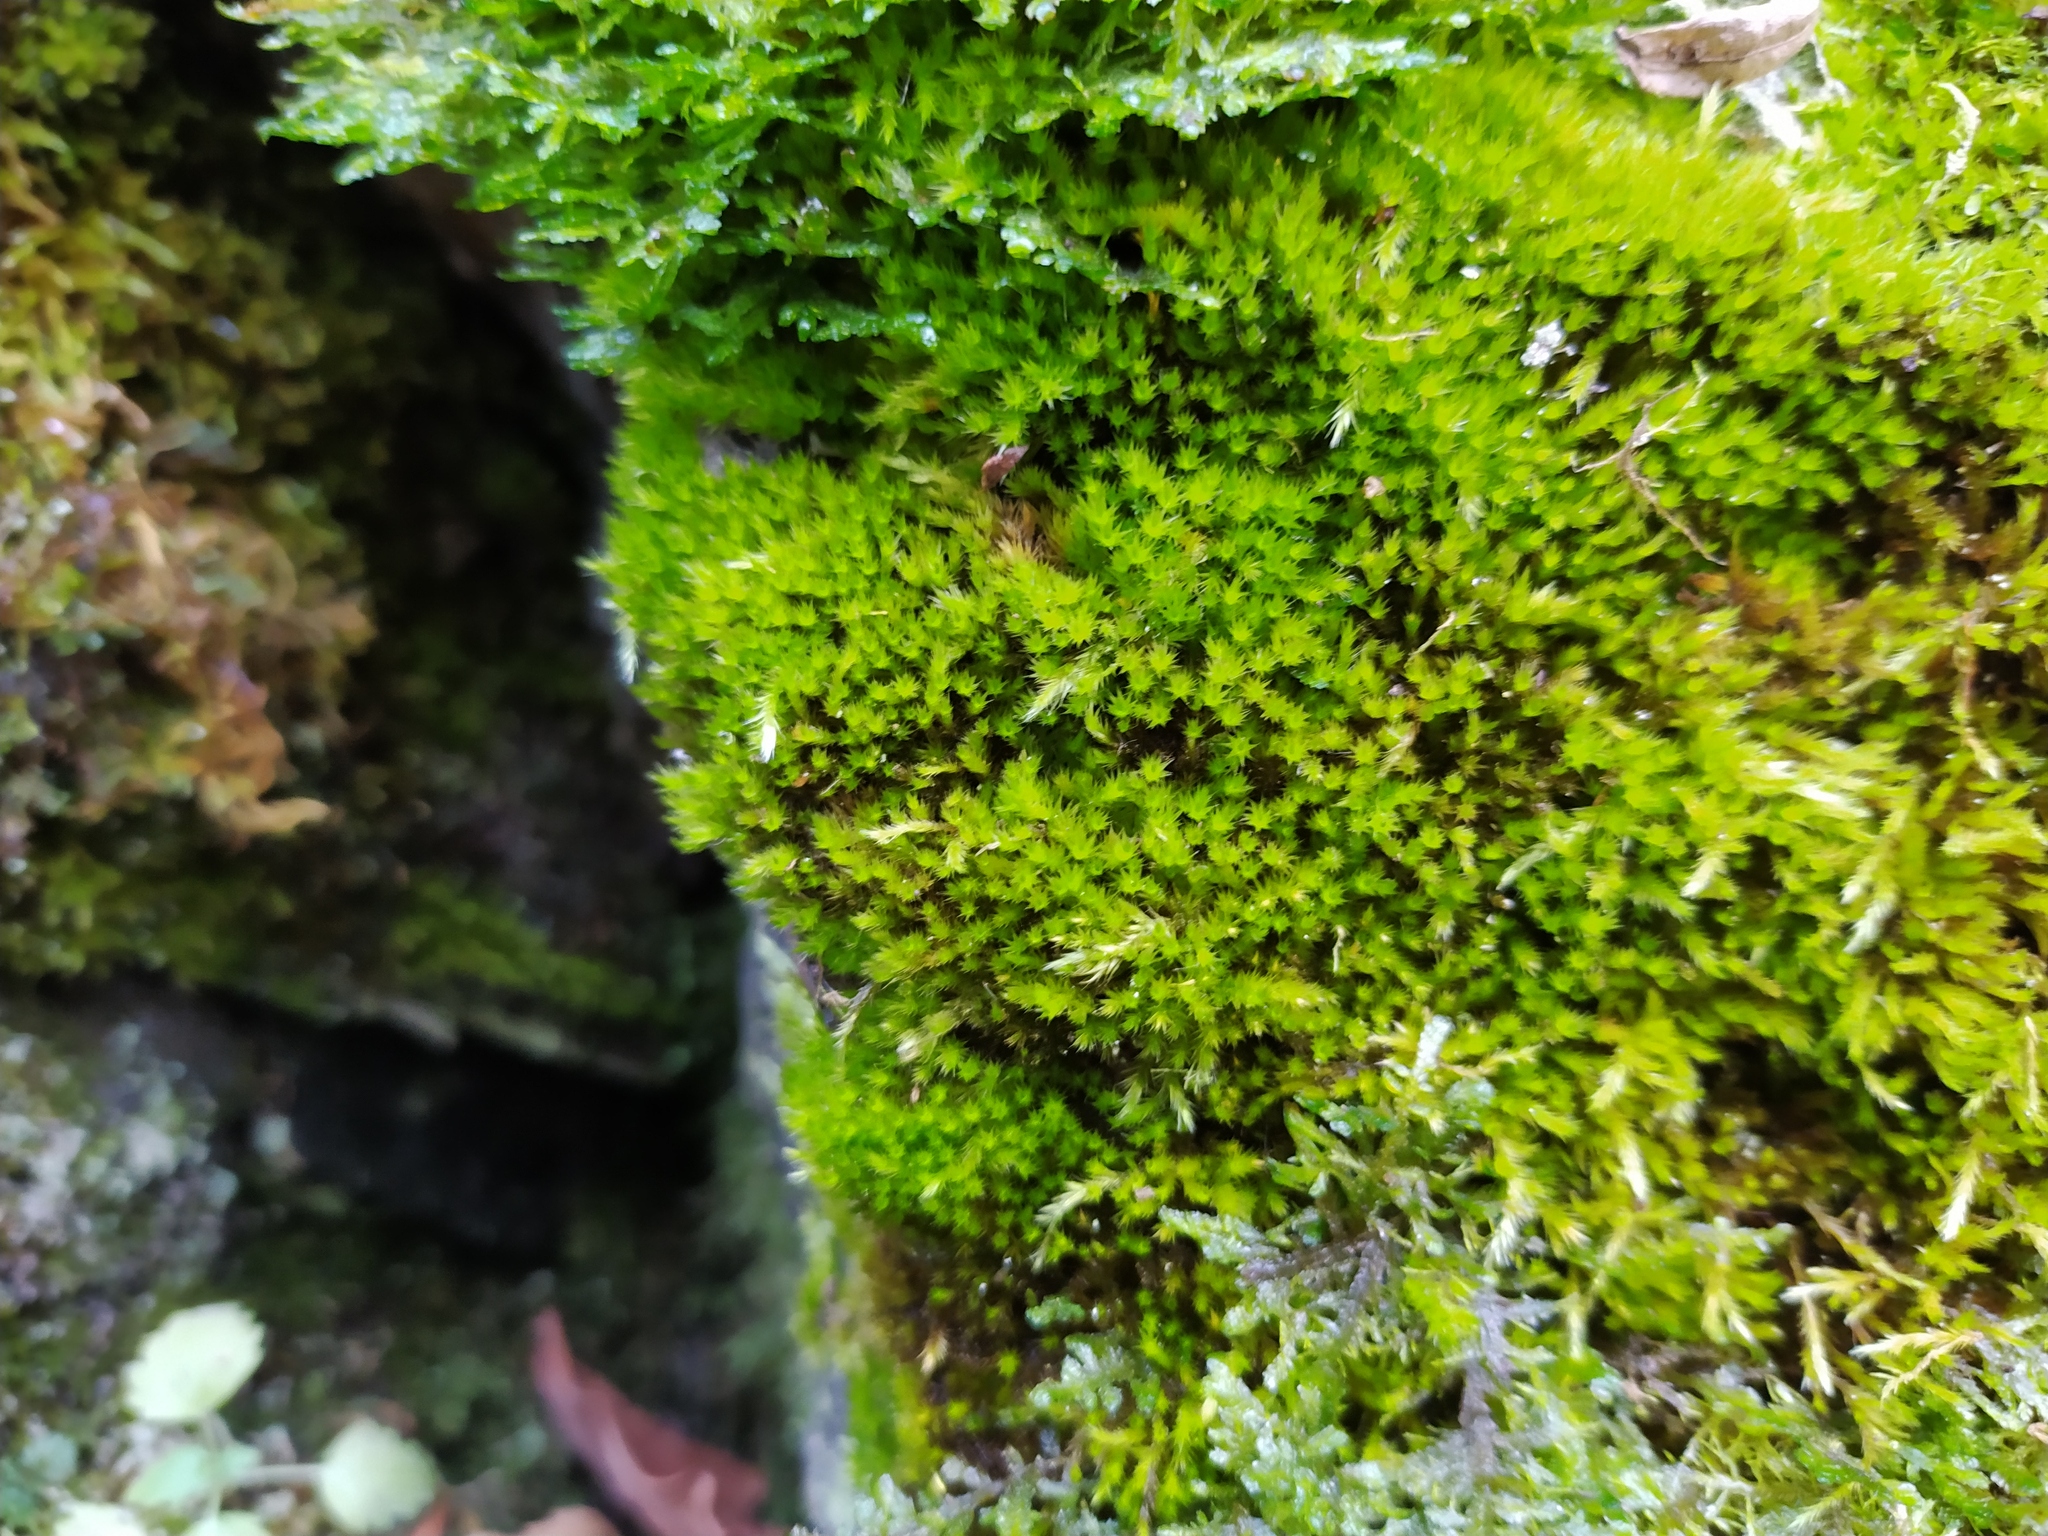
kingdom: Plantae
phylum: Bryophyta
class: Bryopsida
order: Hypnales
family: Brachytheciaceae
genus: Homalothecium
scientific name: Homalothecium sericeum
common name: Silky wall feather-moss
